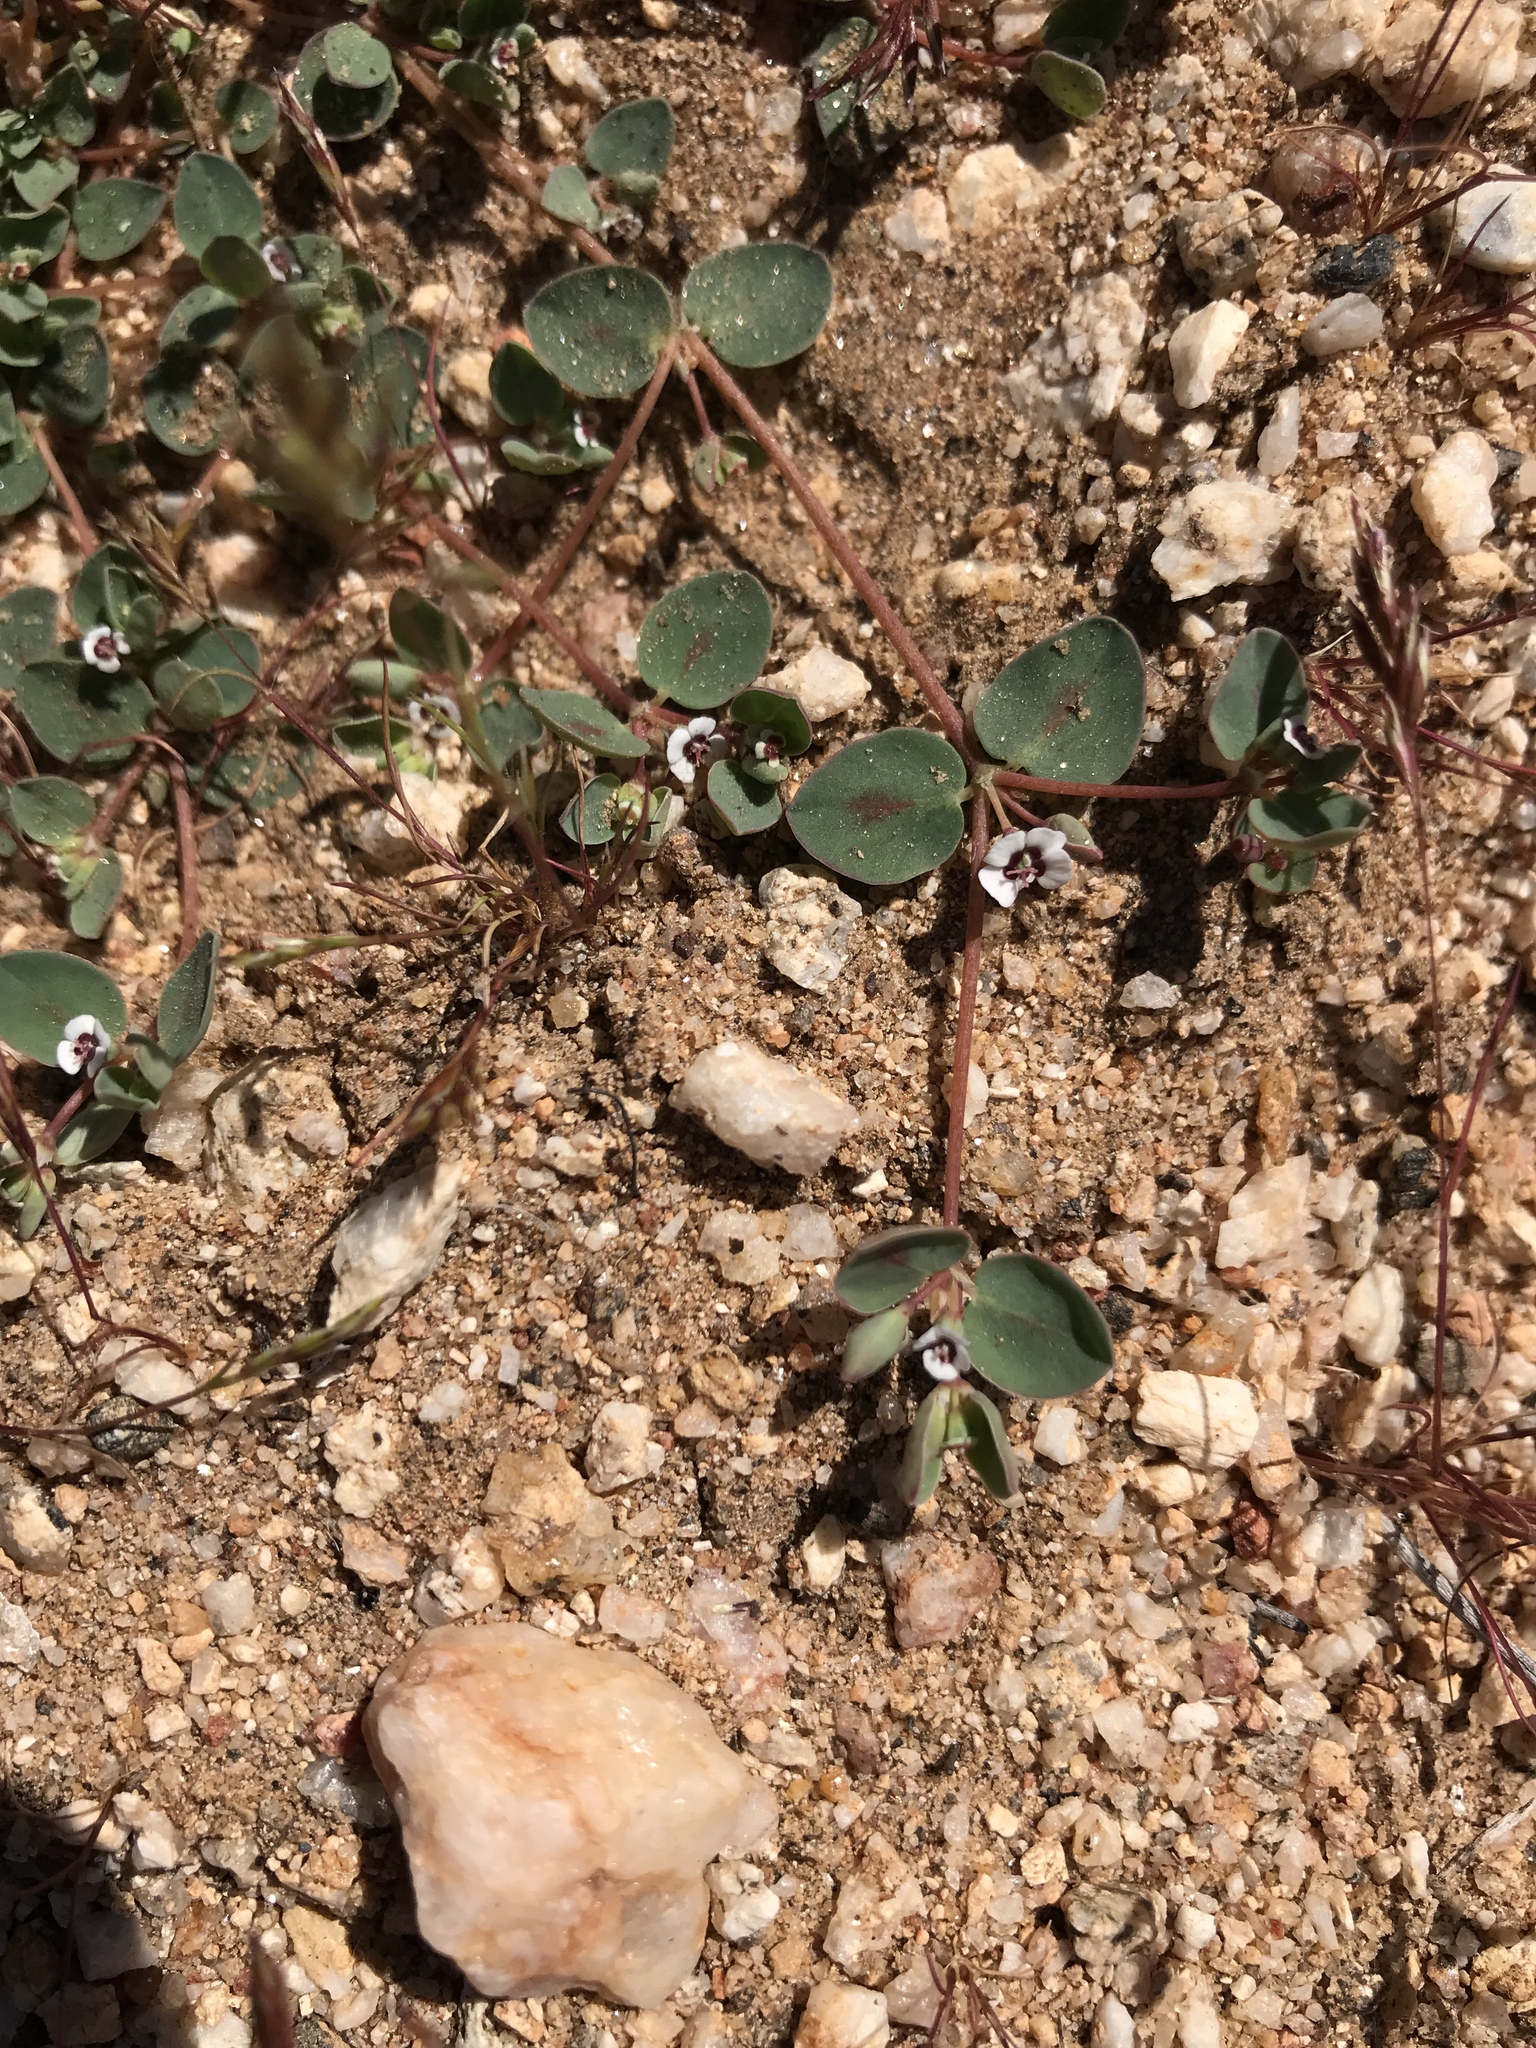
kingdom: Plantae
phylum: Tracheophyta
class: Magnoliopsida
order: Malpighiales
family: Euphorbiaceae
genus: Euphorbia
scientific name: Euphorbia albomarginata
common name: Whitemargin sandmat
